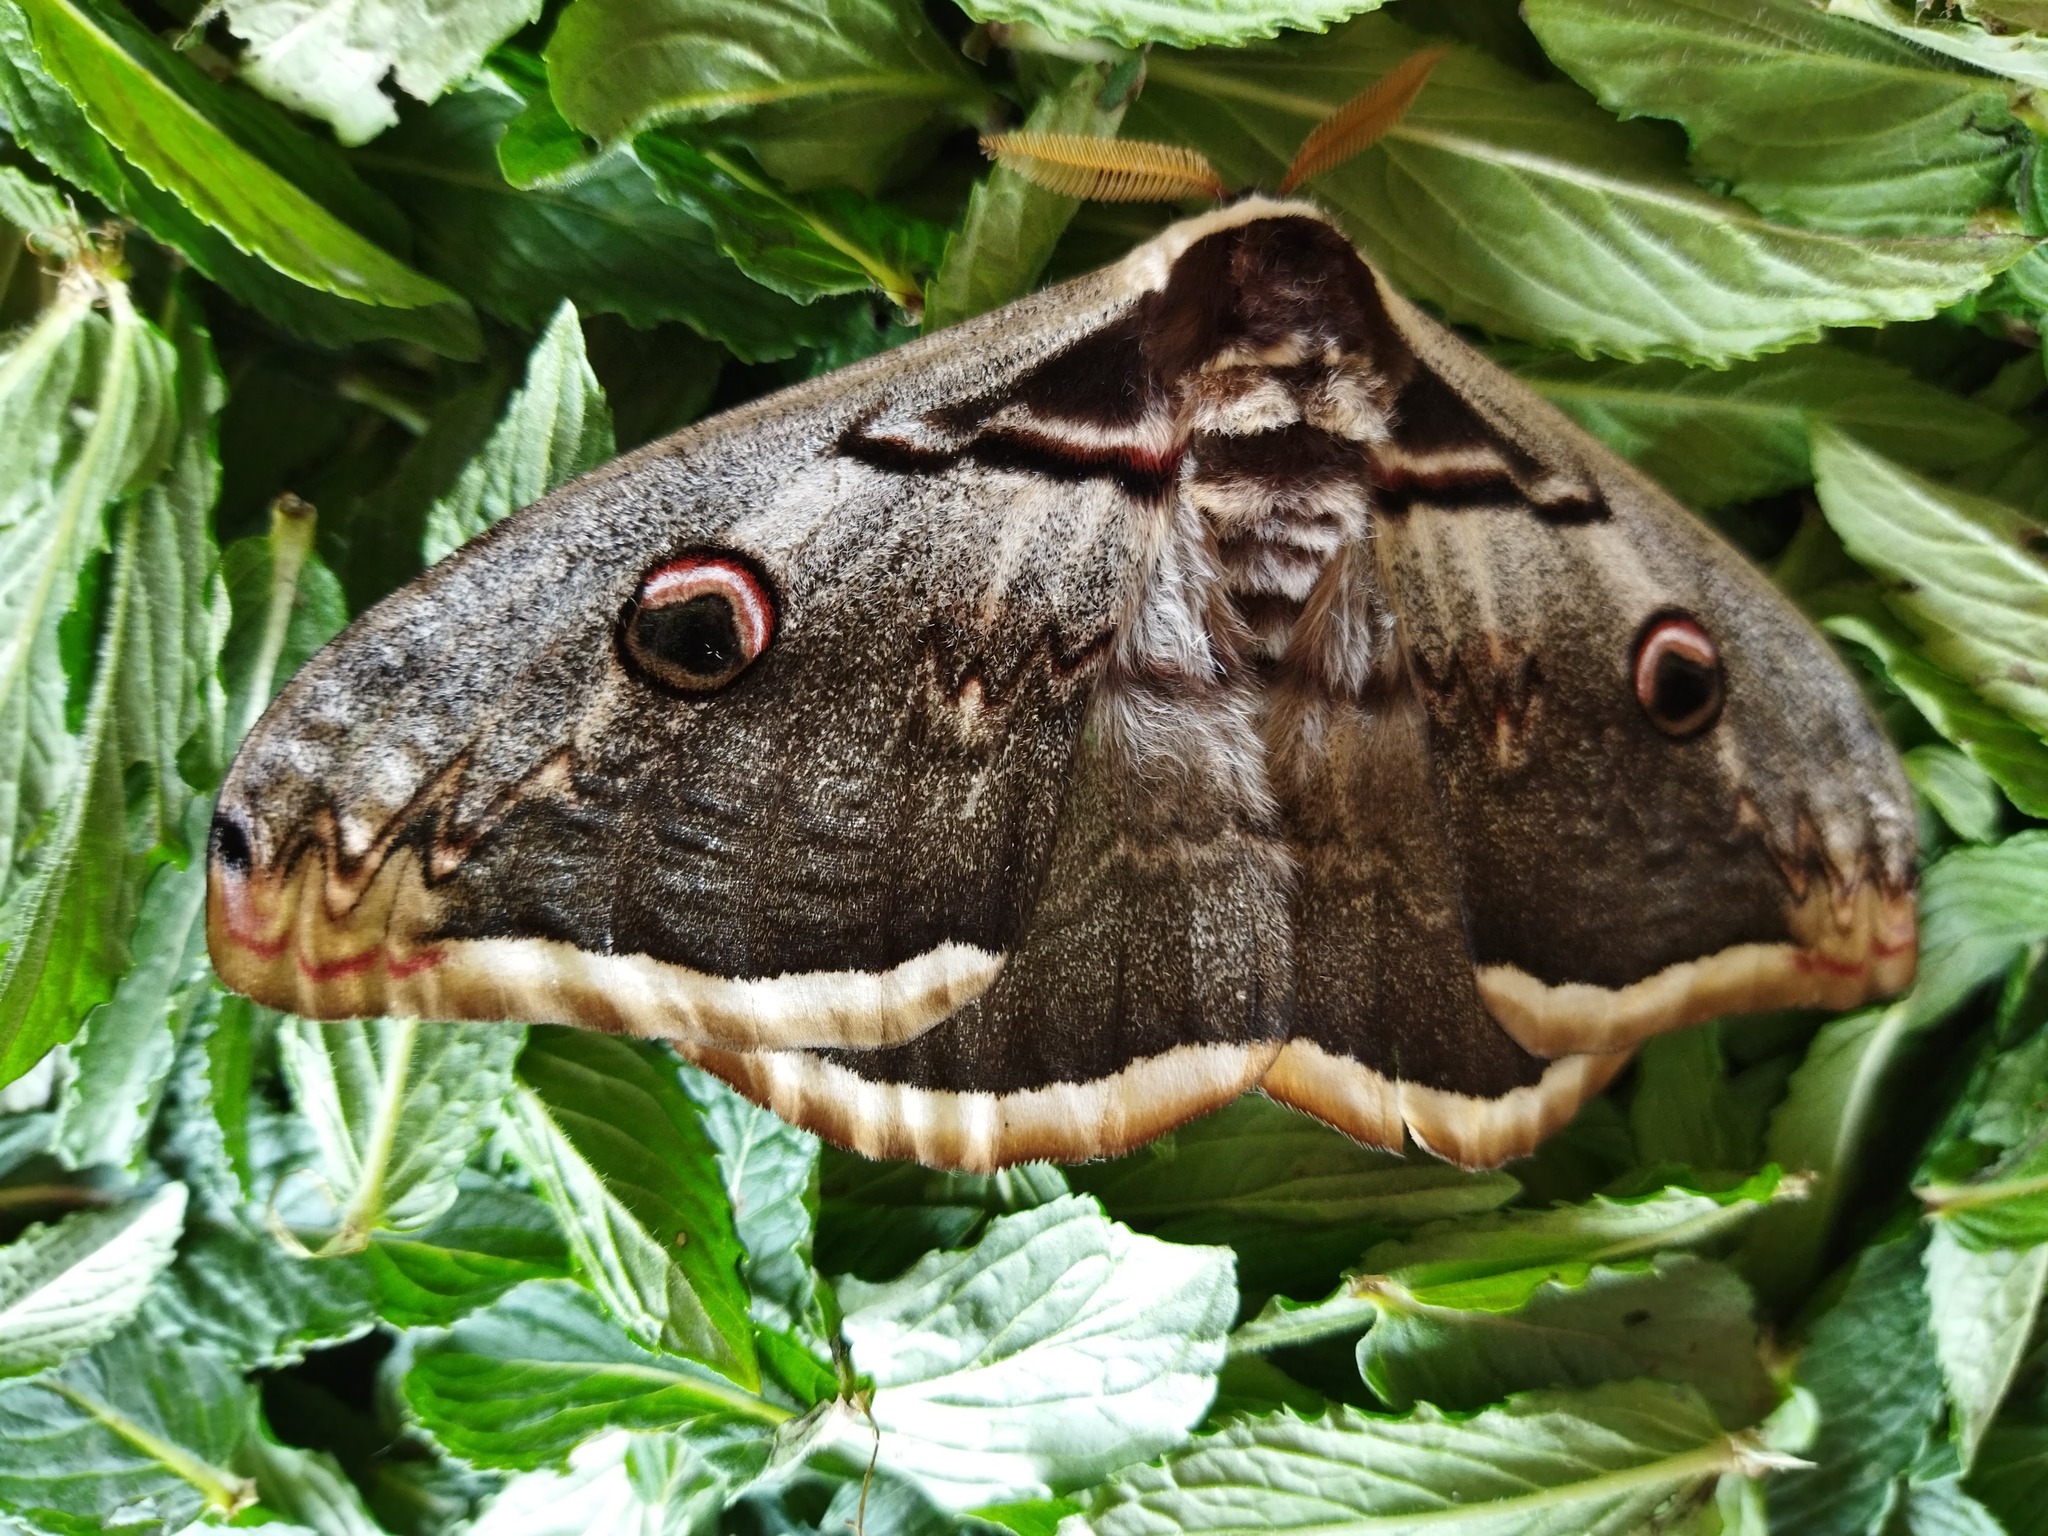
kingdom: Animalia
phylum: Arthropoda
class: Insecta
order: Lepidoptera
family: Saturniidae
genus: Saturnia
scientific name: Saturnia pyri
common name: Great peacock moth
